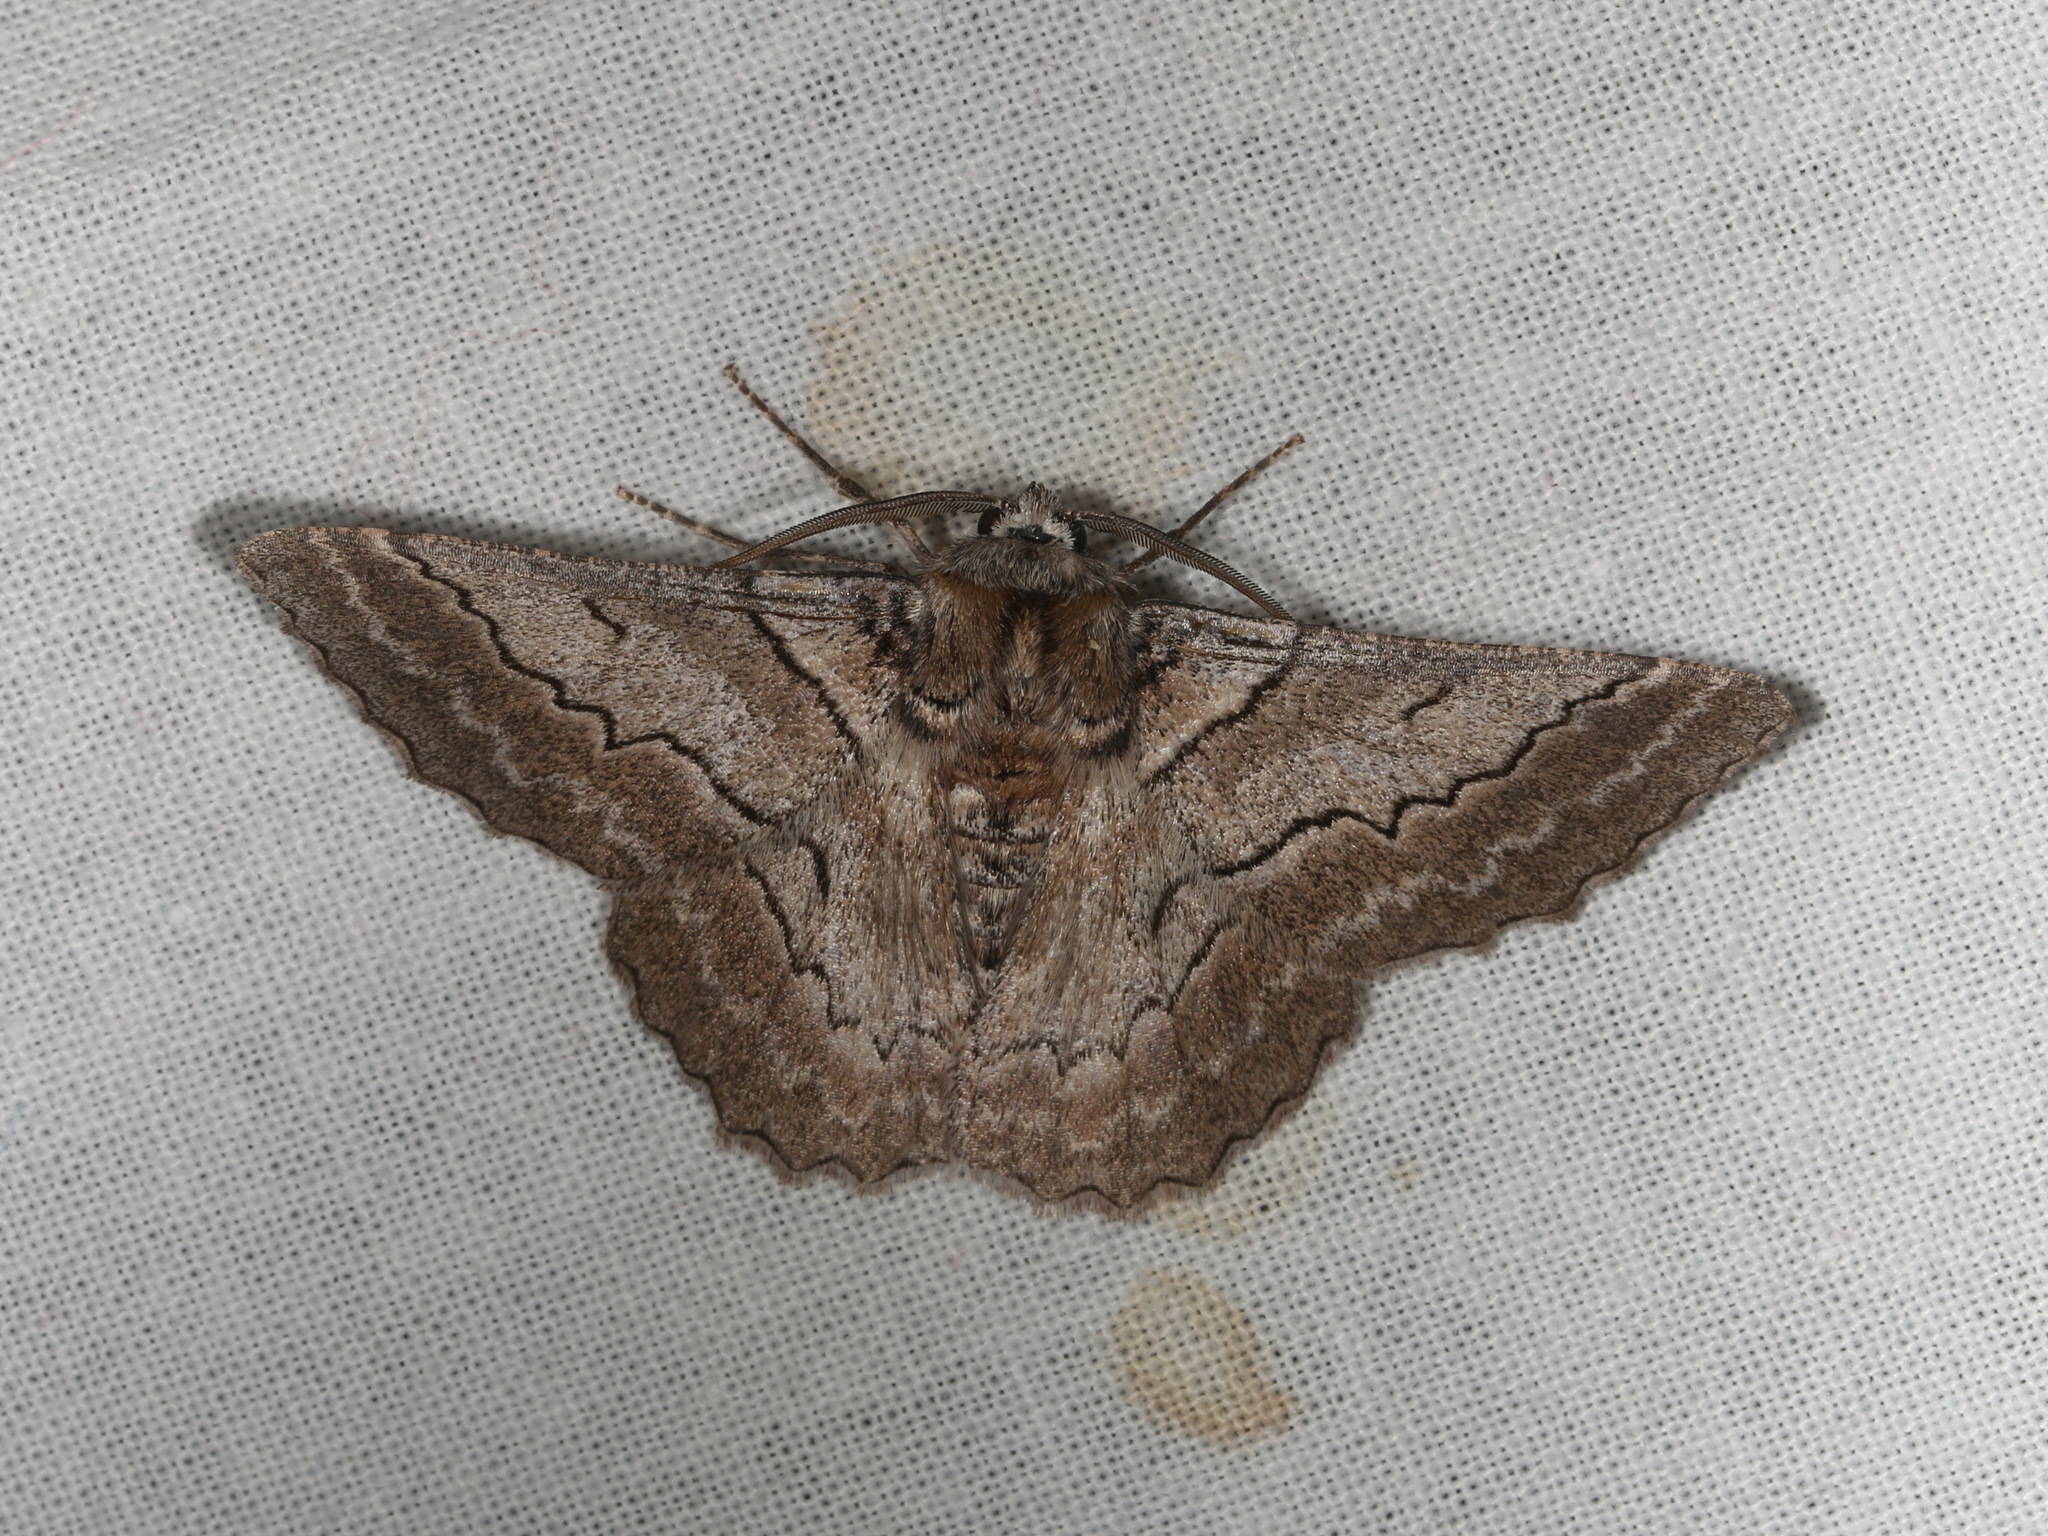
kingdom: Animalia
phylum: Arthropoda
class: Insecta
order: Lepidoptera
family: Geometridae
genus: Hypobapta
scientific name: Hypobapta tachyhalotaria
